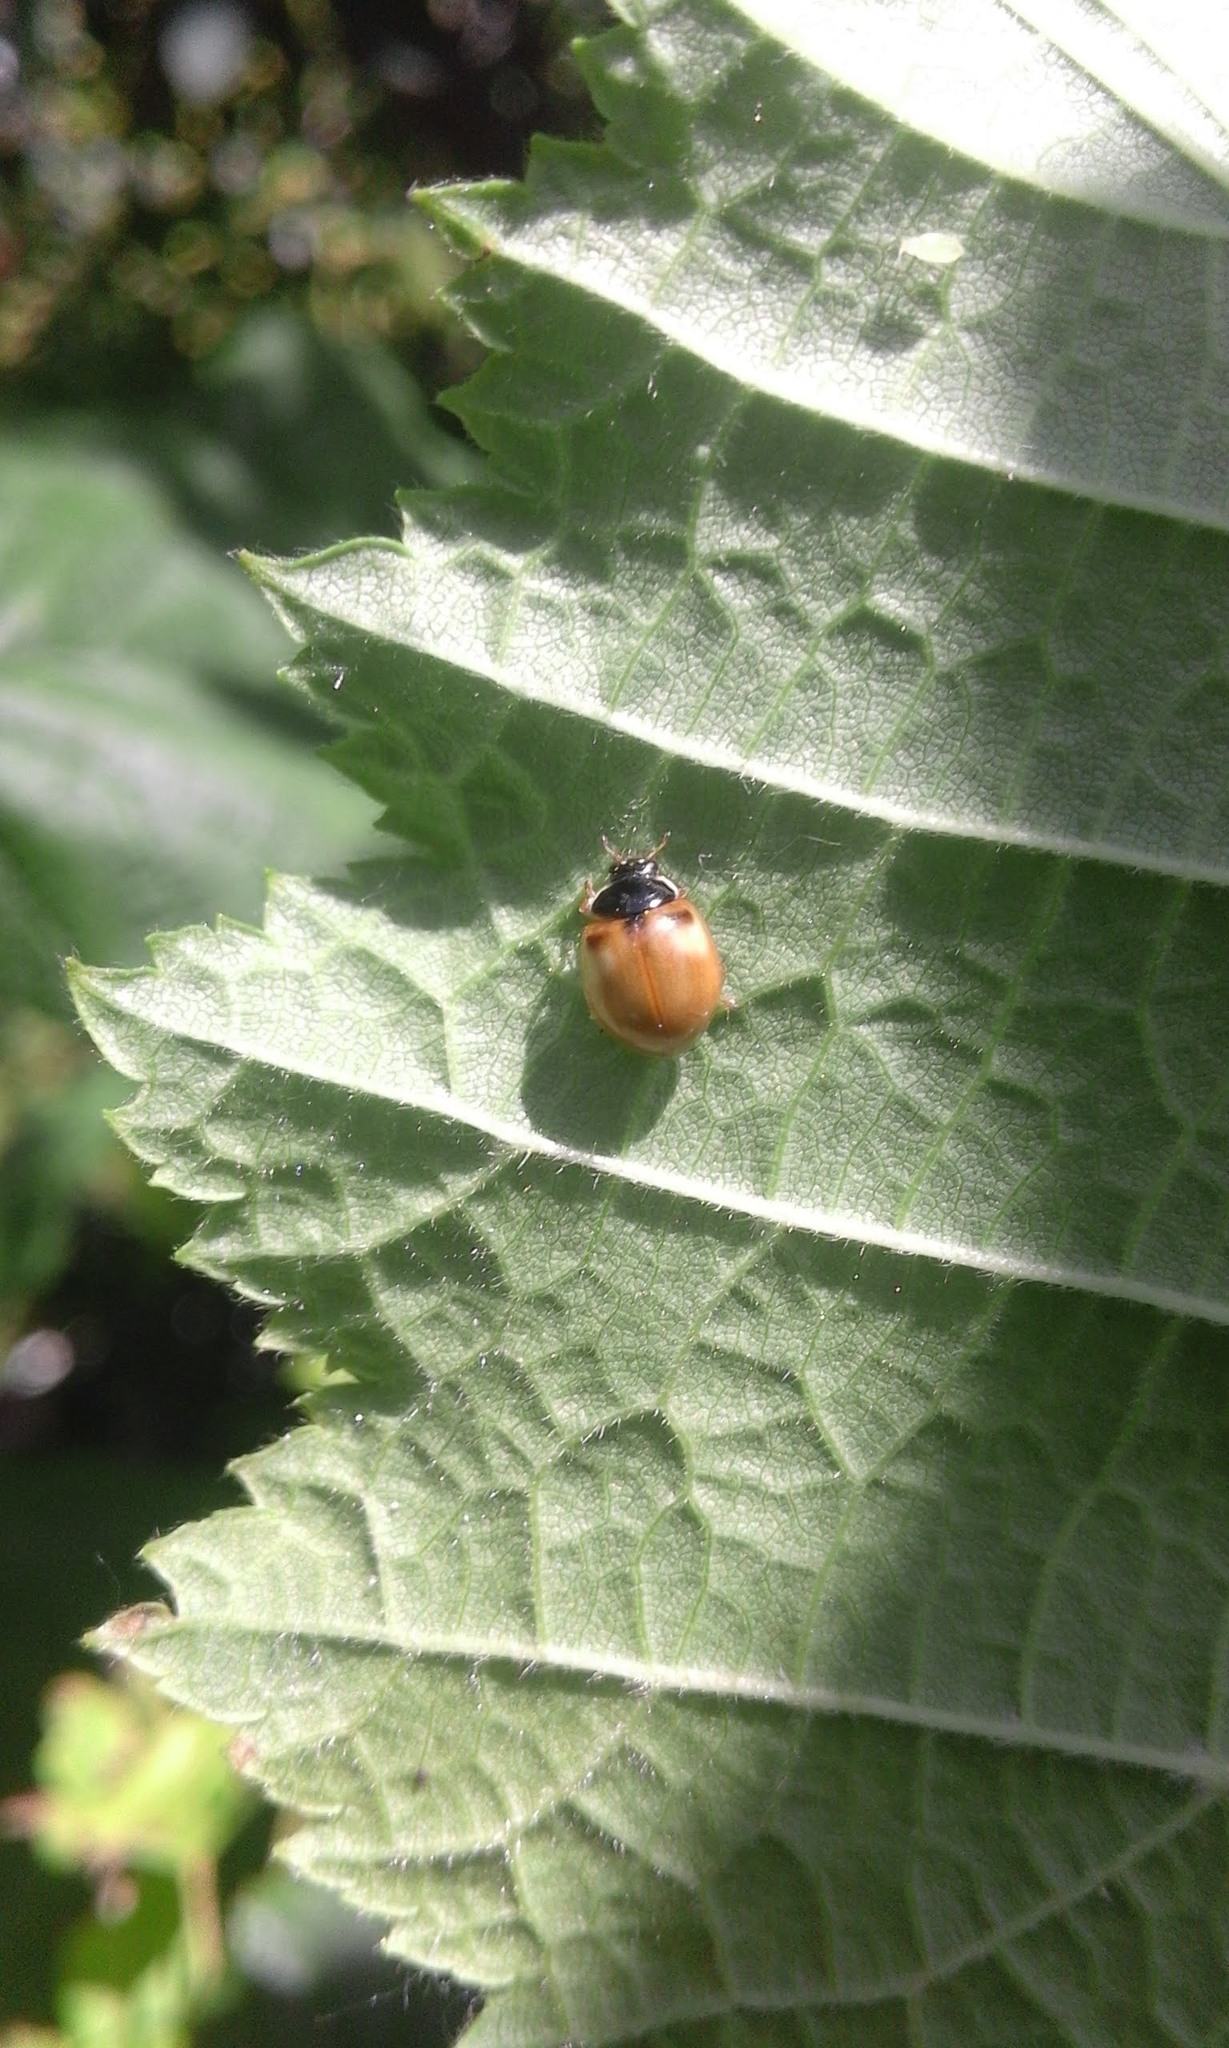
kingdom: Animalia
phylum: Arthropoda
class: Insecta
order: Coleoptera
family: Coccinellidae
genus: Adalia
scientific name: Adalia decempunctata
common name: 10-spot ladybird
